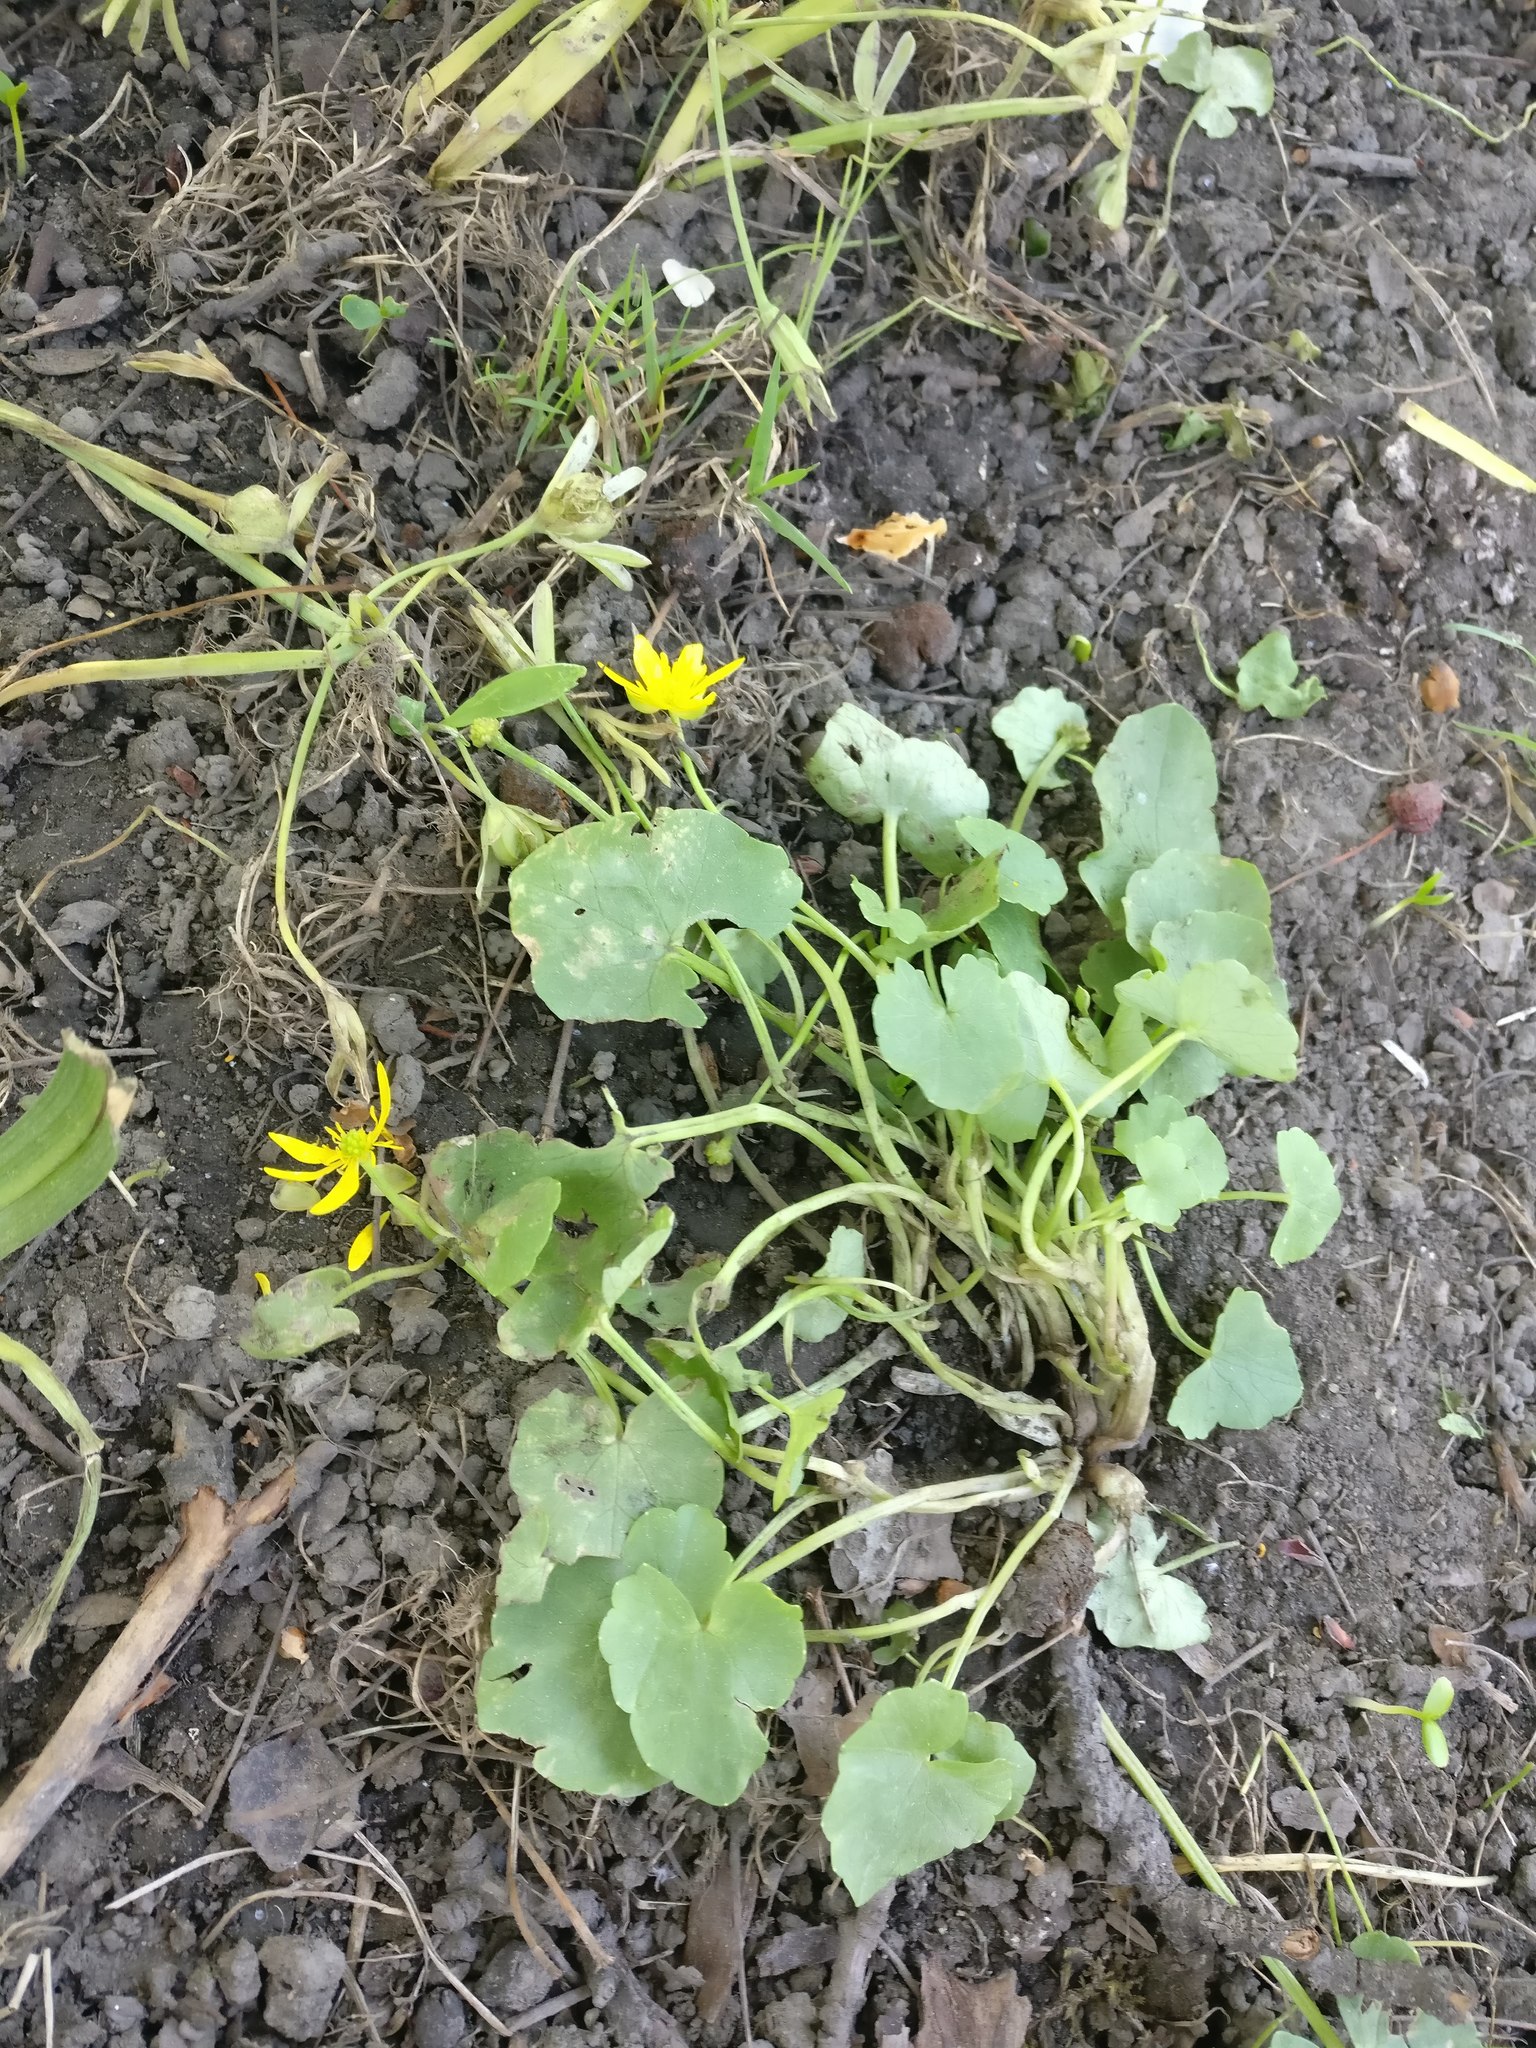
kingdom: Plantae
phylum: Tracheophyta
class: Magnoliopsida
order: Ranunculales
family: Ranunculaceae
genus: Ficaria
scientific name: Ficaria verna
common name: Lesser celandine
